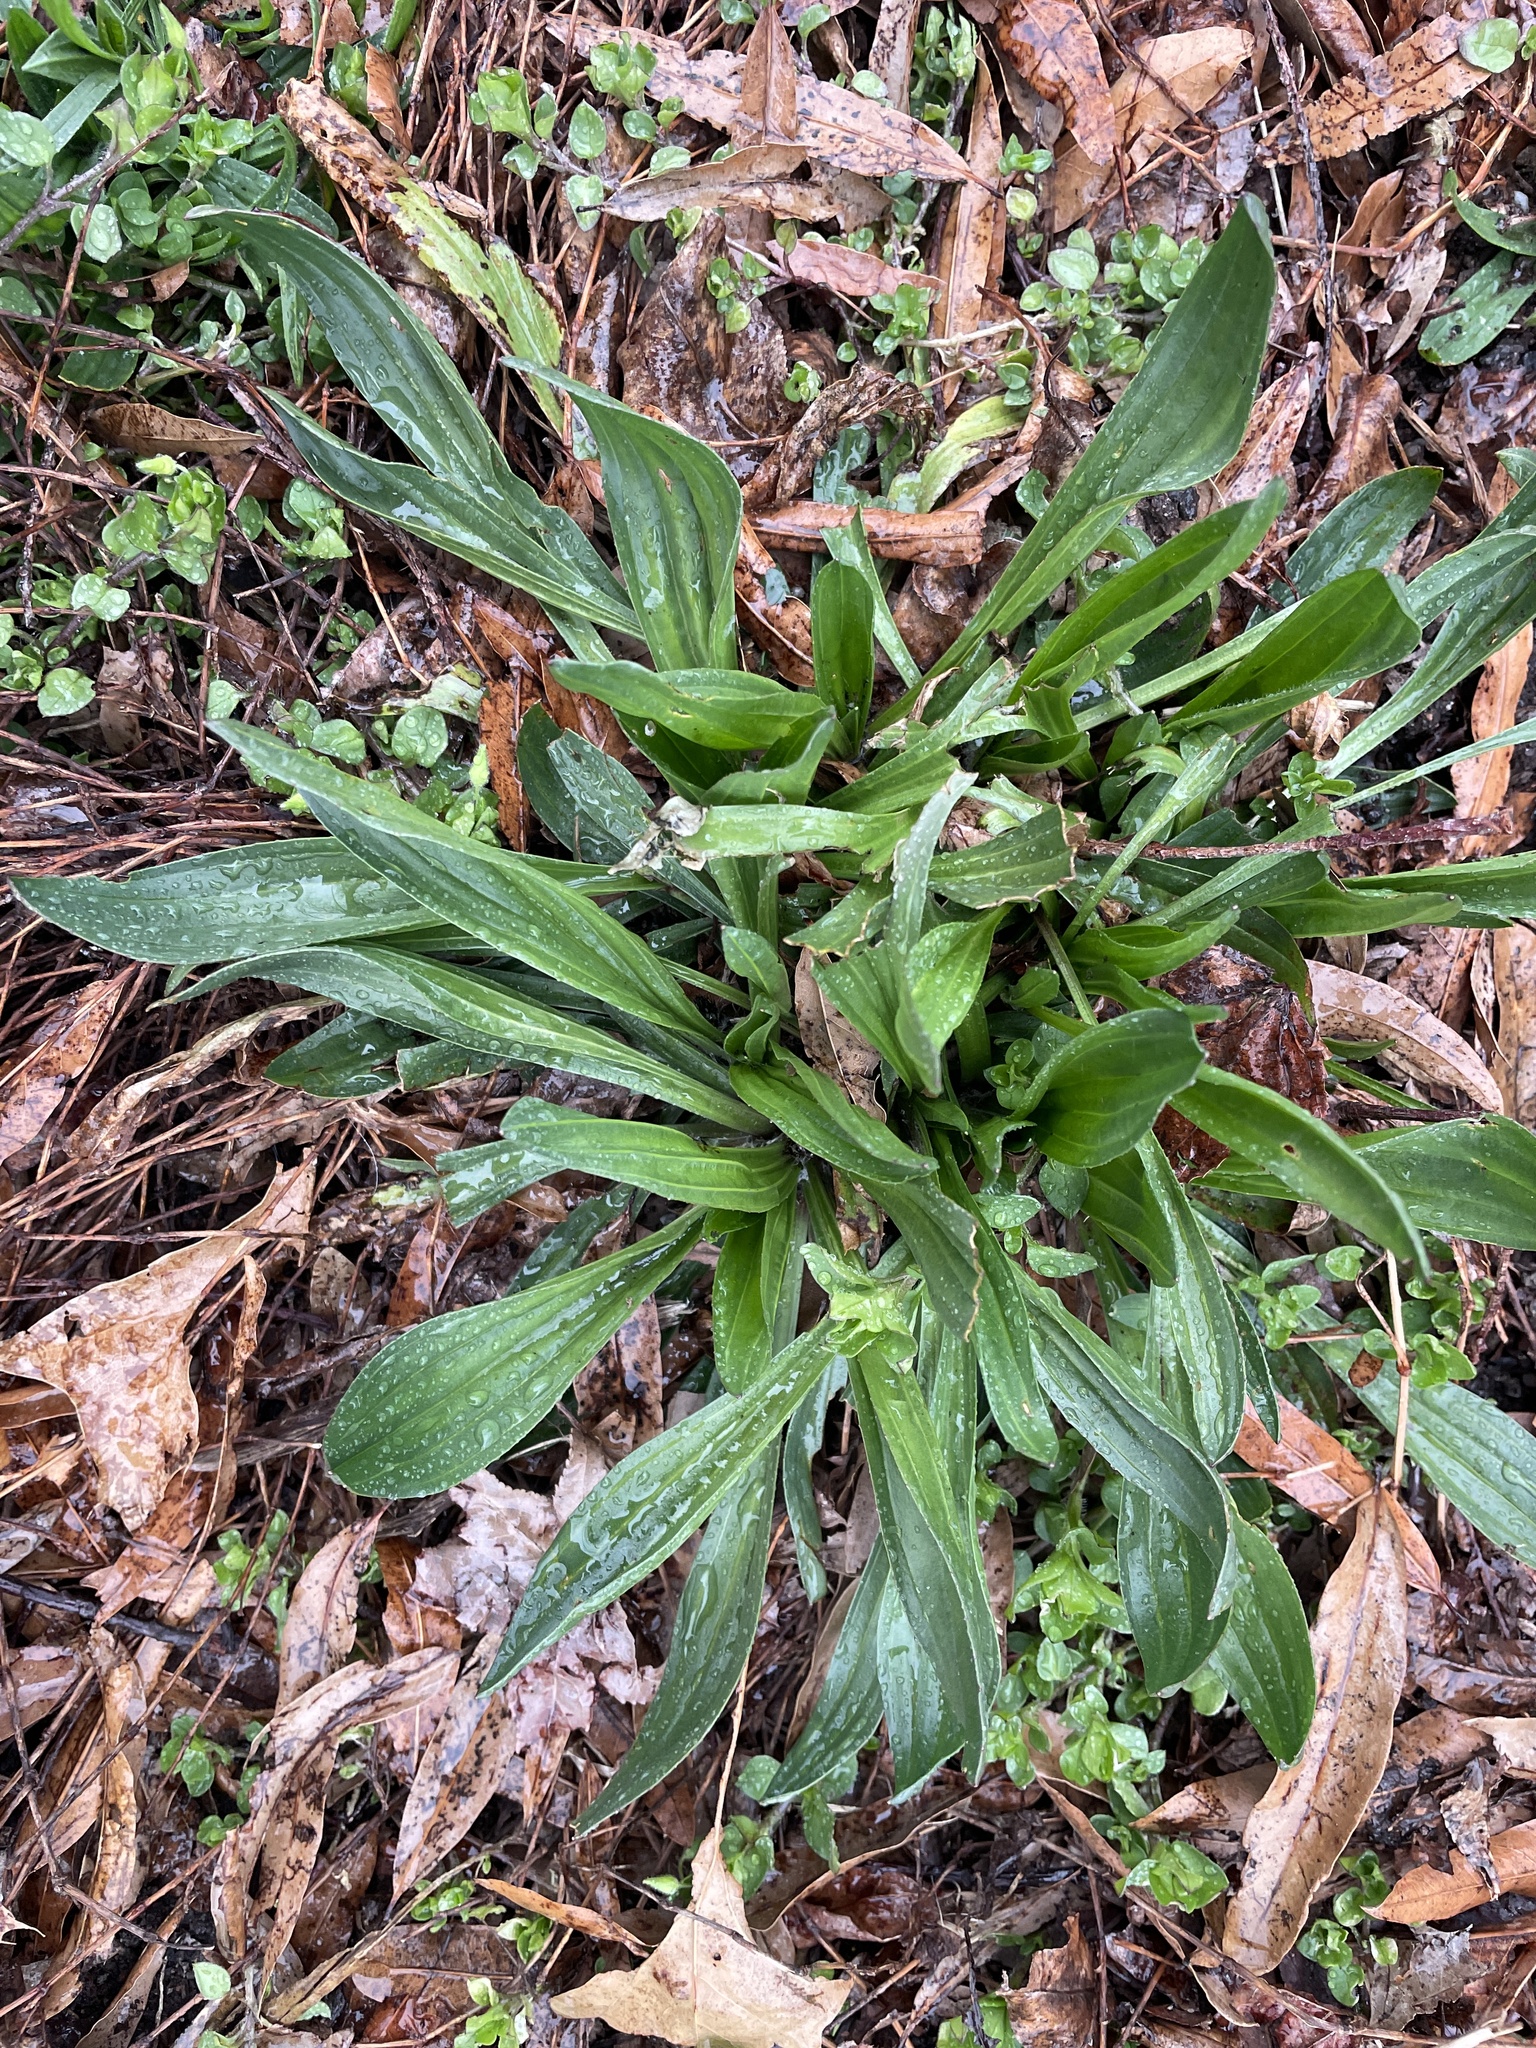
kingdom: Plantae
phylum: Tracheophyta
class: Magnoliopsida
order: Lamiales
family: Plantaginaceae
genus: Plantago
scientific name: Plantago lanceolata
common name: Ribwort plantain
